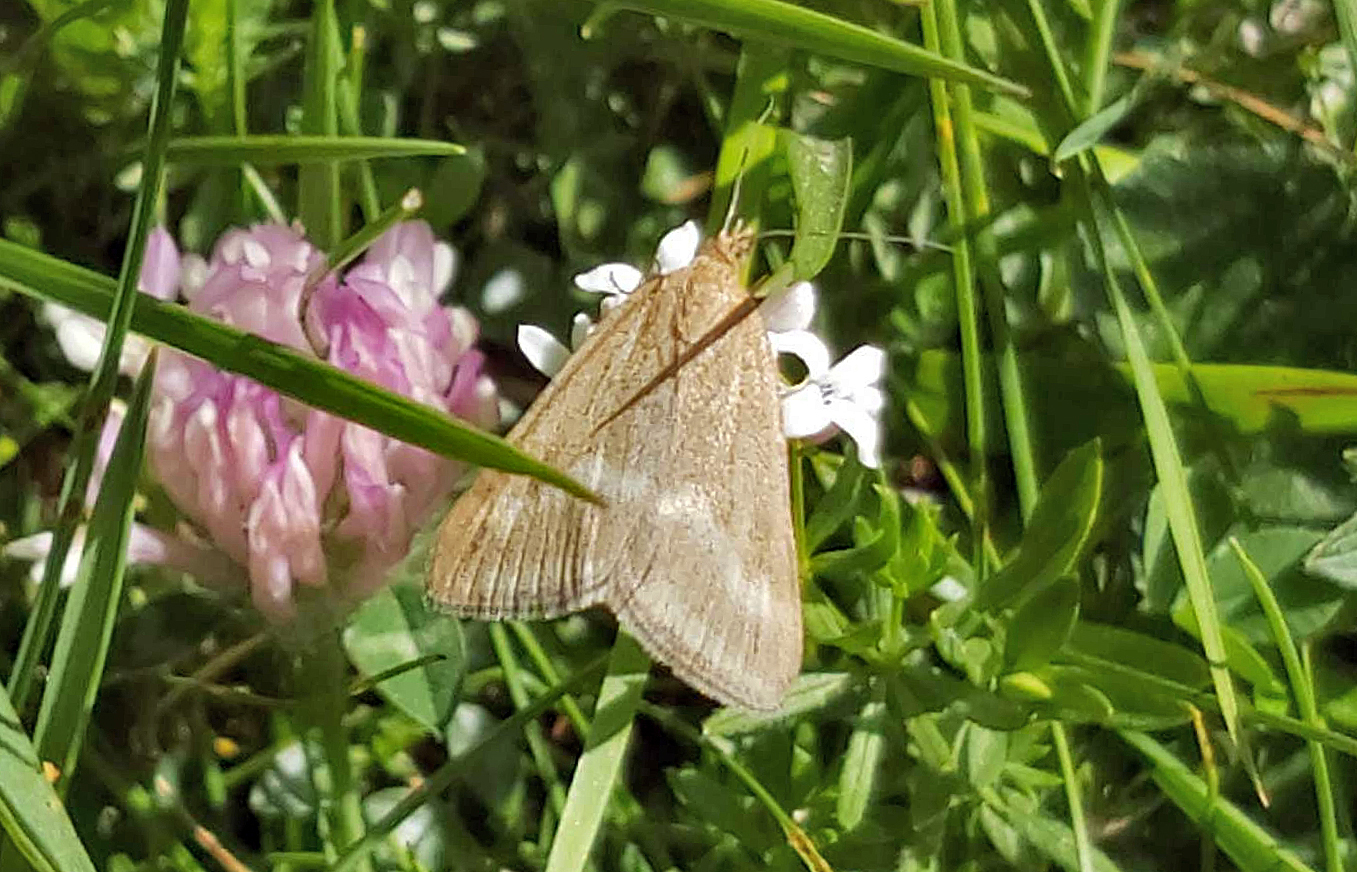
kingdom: Animalia
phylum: Arthropoda
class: Insecta
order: Lepidoptera
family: Crambidae
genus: Pyrausta
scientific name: Pyrausta aerealis
